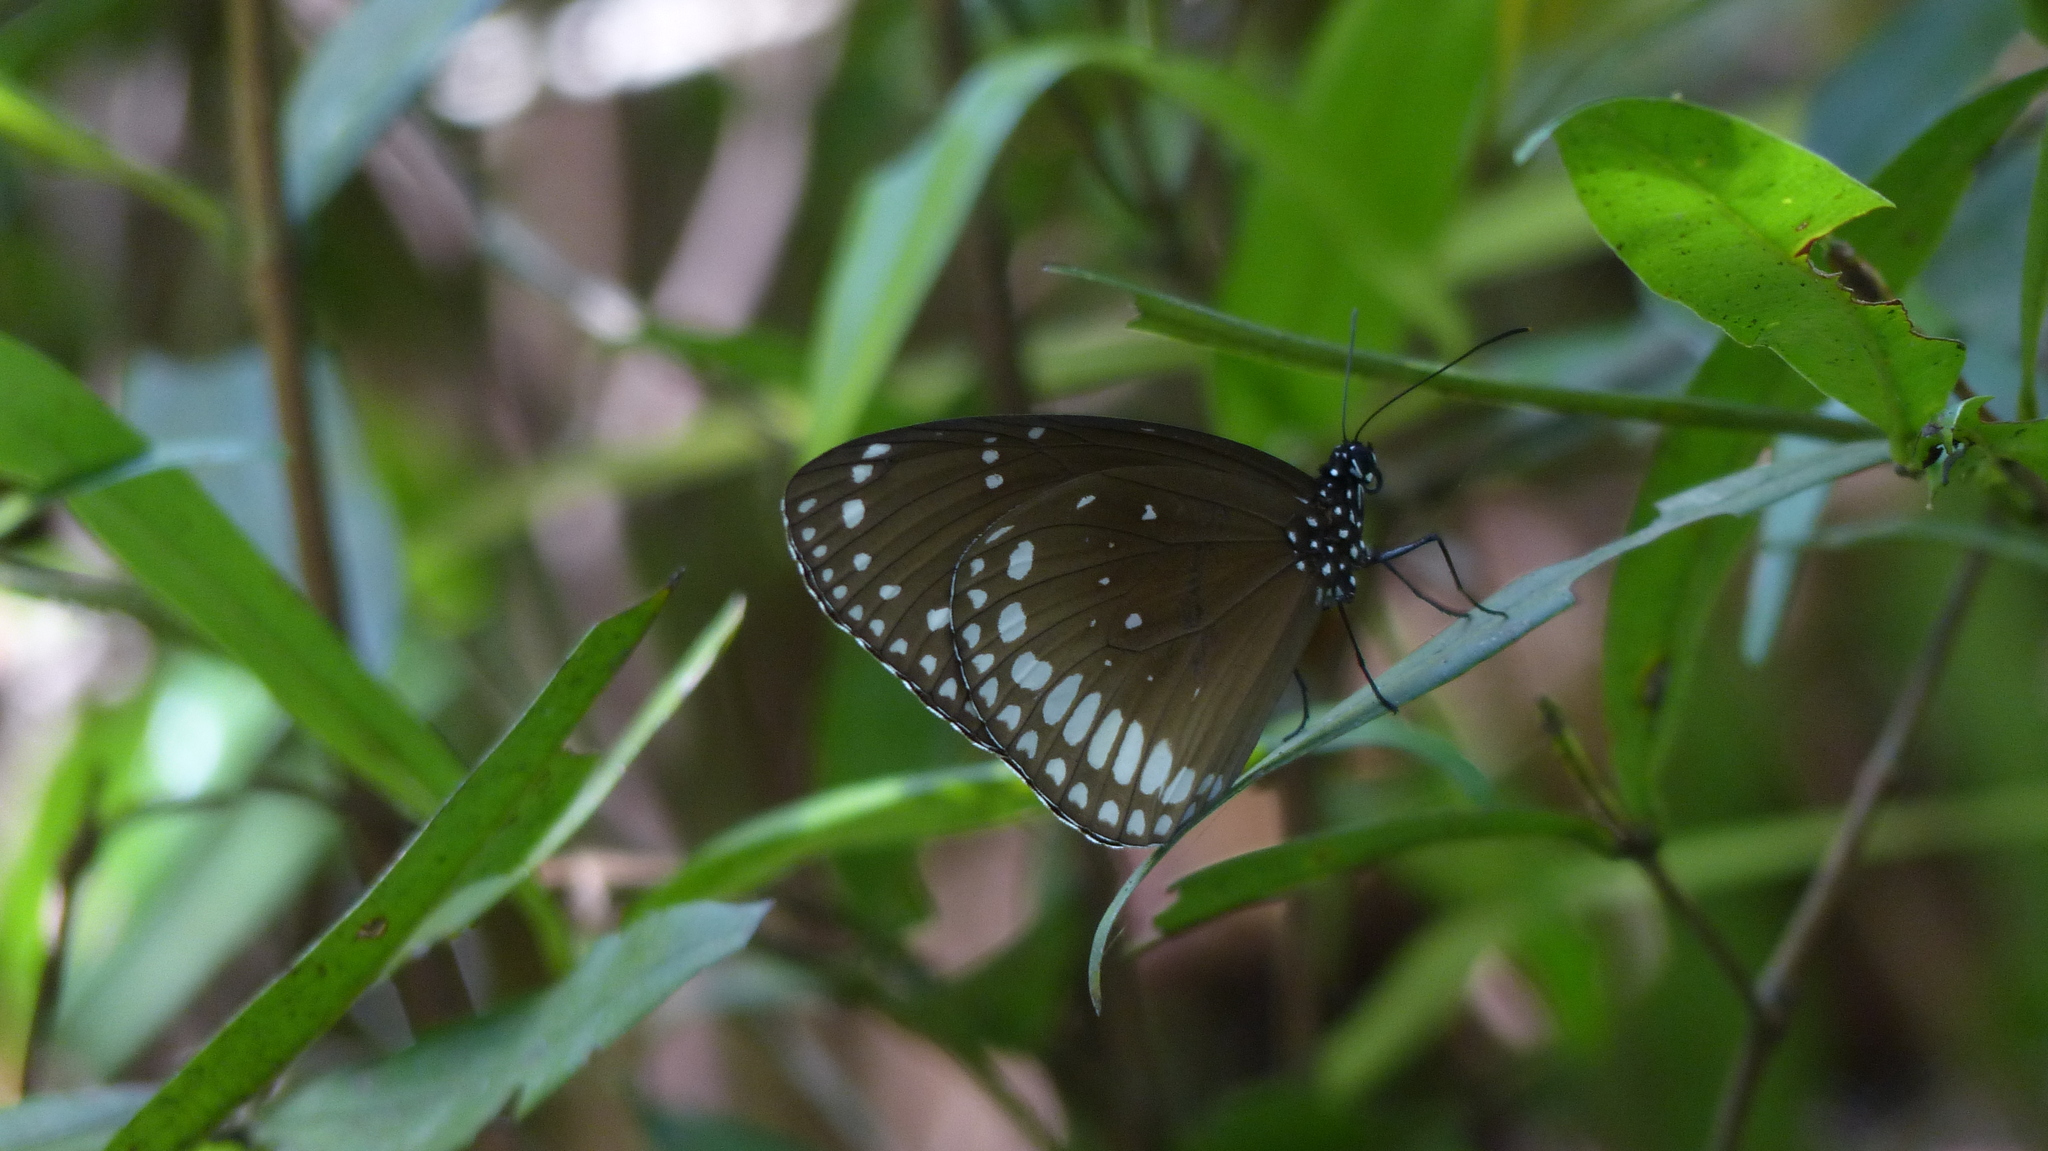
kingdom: Animalia
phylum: Arthropoda
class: Insecta
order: Lepidoptera
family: Nymphalidae
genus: Euploea
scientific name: Euploea sylvester
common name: Double-branded crow butterfly
